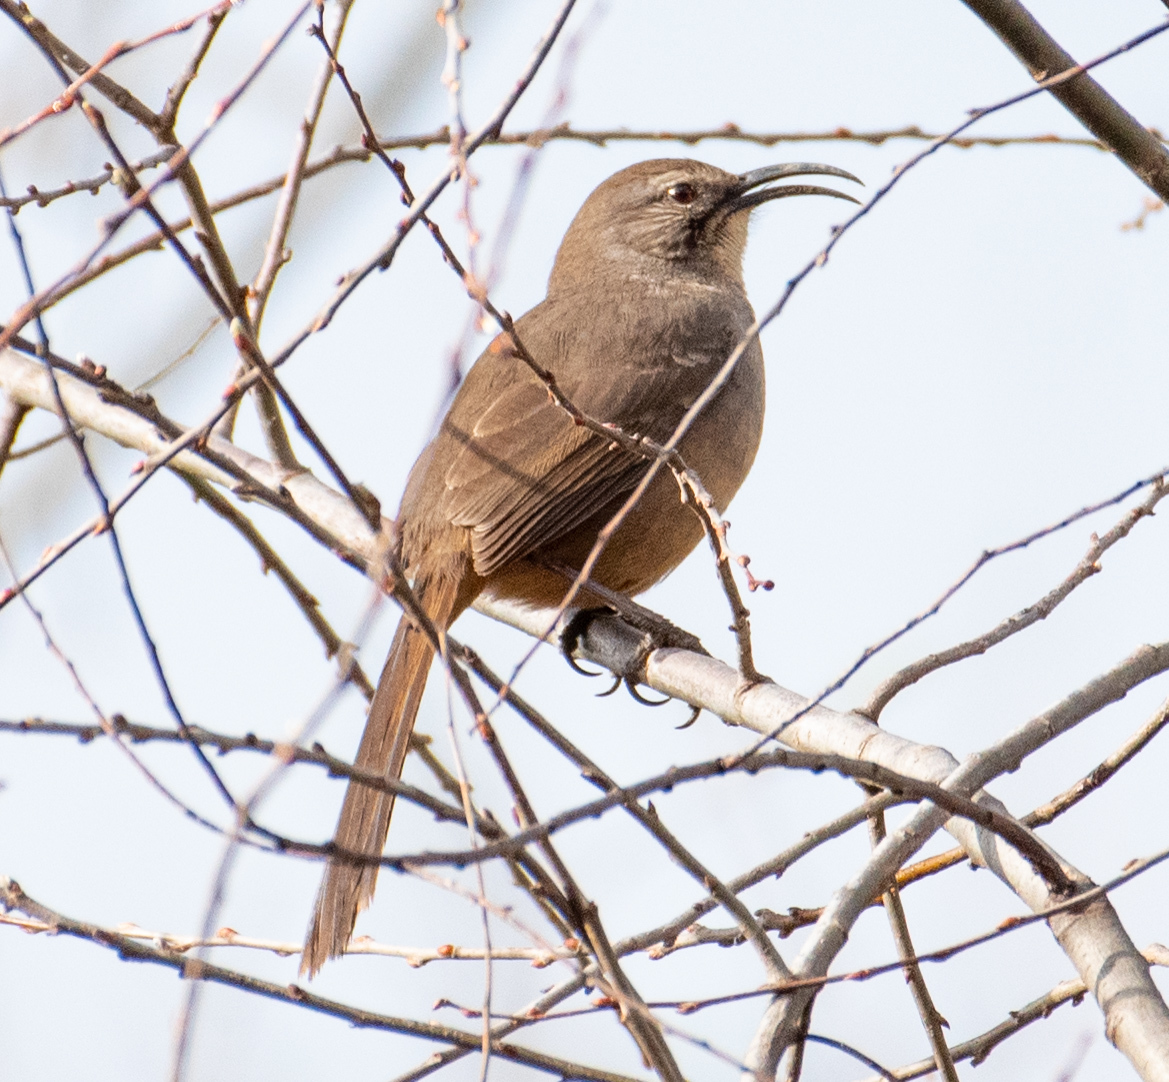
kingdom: Animalia
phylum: Chordata
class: Aves
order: Passeriformes
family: Mimidae
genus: Toxostoma
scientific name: Toxostoma redivivum
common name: California thrasher
